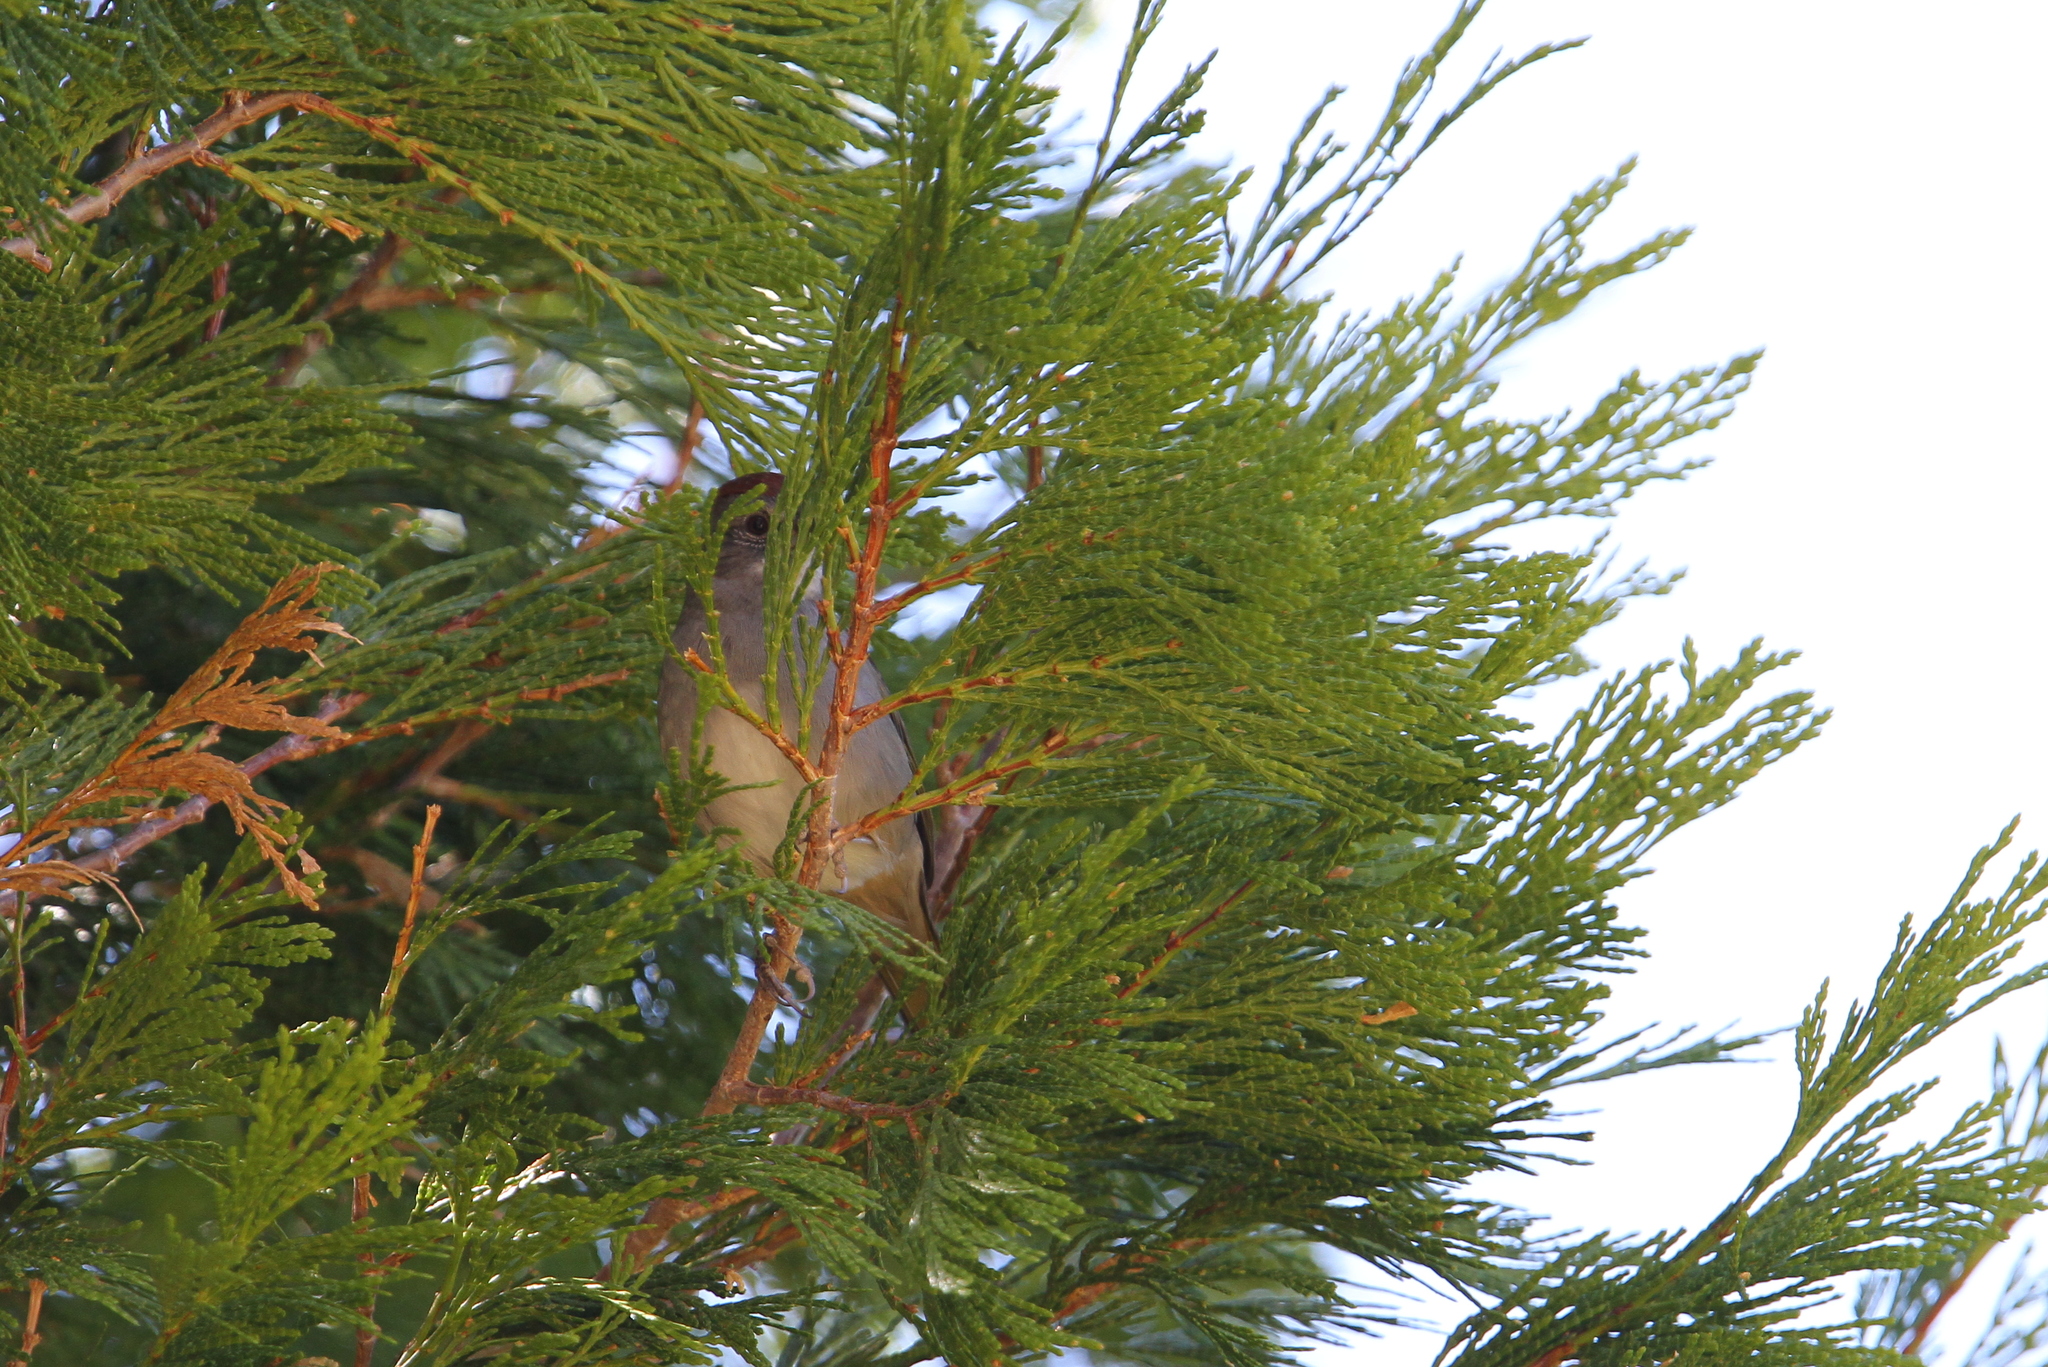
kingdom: Animalia
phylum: Chordata
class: Aves
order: Passeriformes
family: Passerellidae
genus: Pipilo
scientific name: Pipilo chlorurus
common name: Green-tailed towhee
